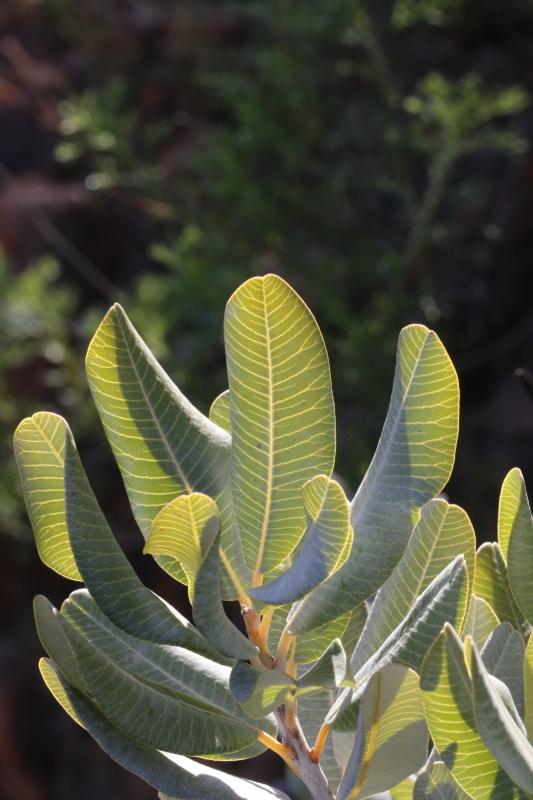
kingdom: Plantae
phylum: Tracheophyta
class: Magnoliopsida
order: Sapindales
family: Anacardiaceae
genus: Heeria
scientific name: Heeria argentea
